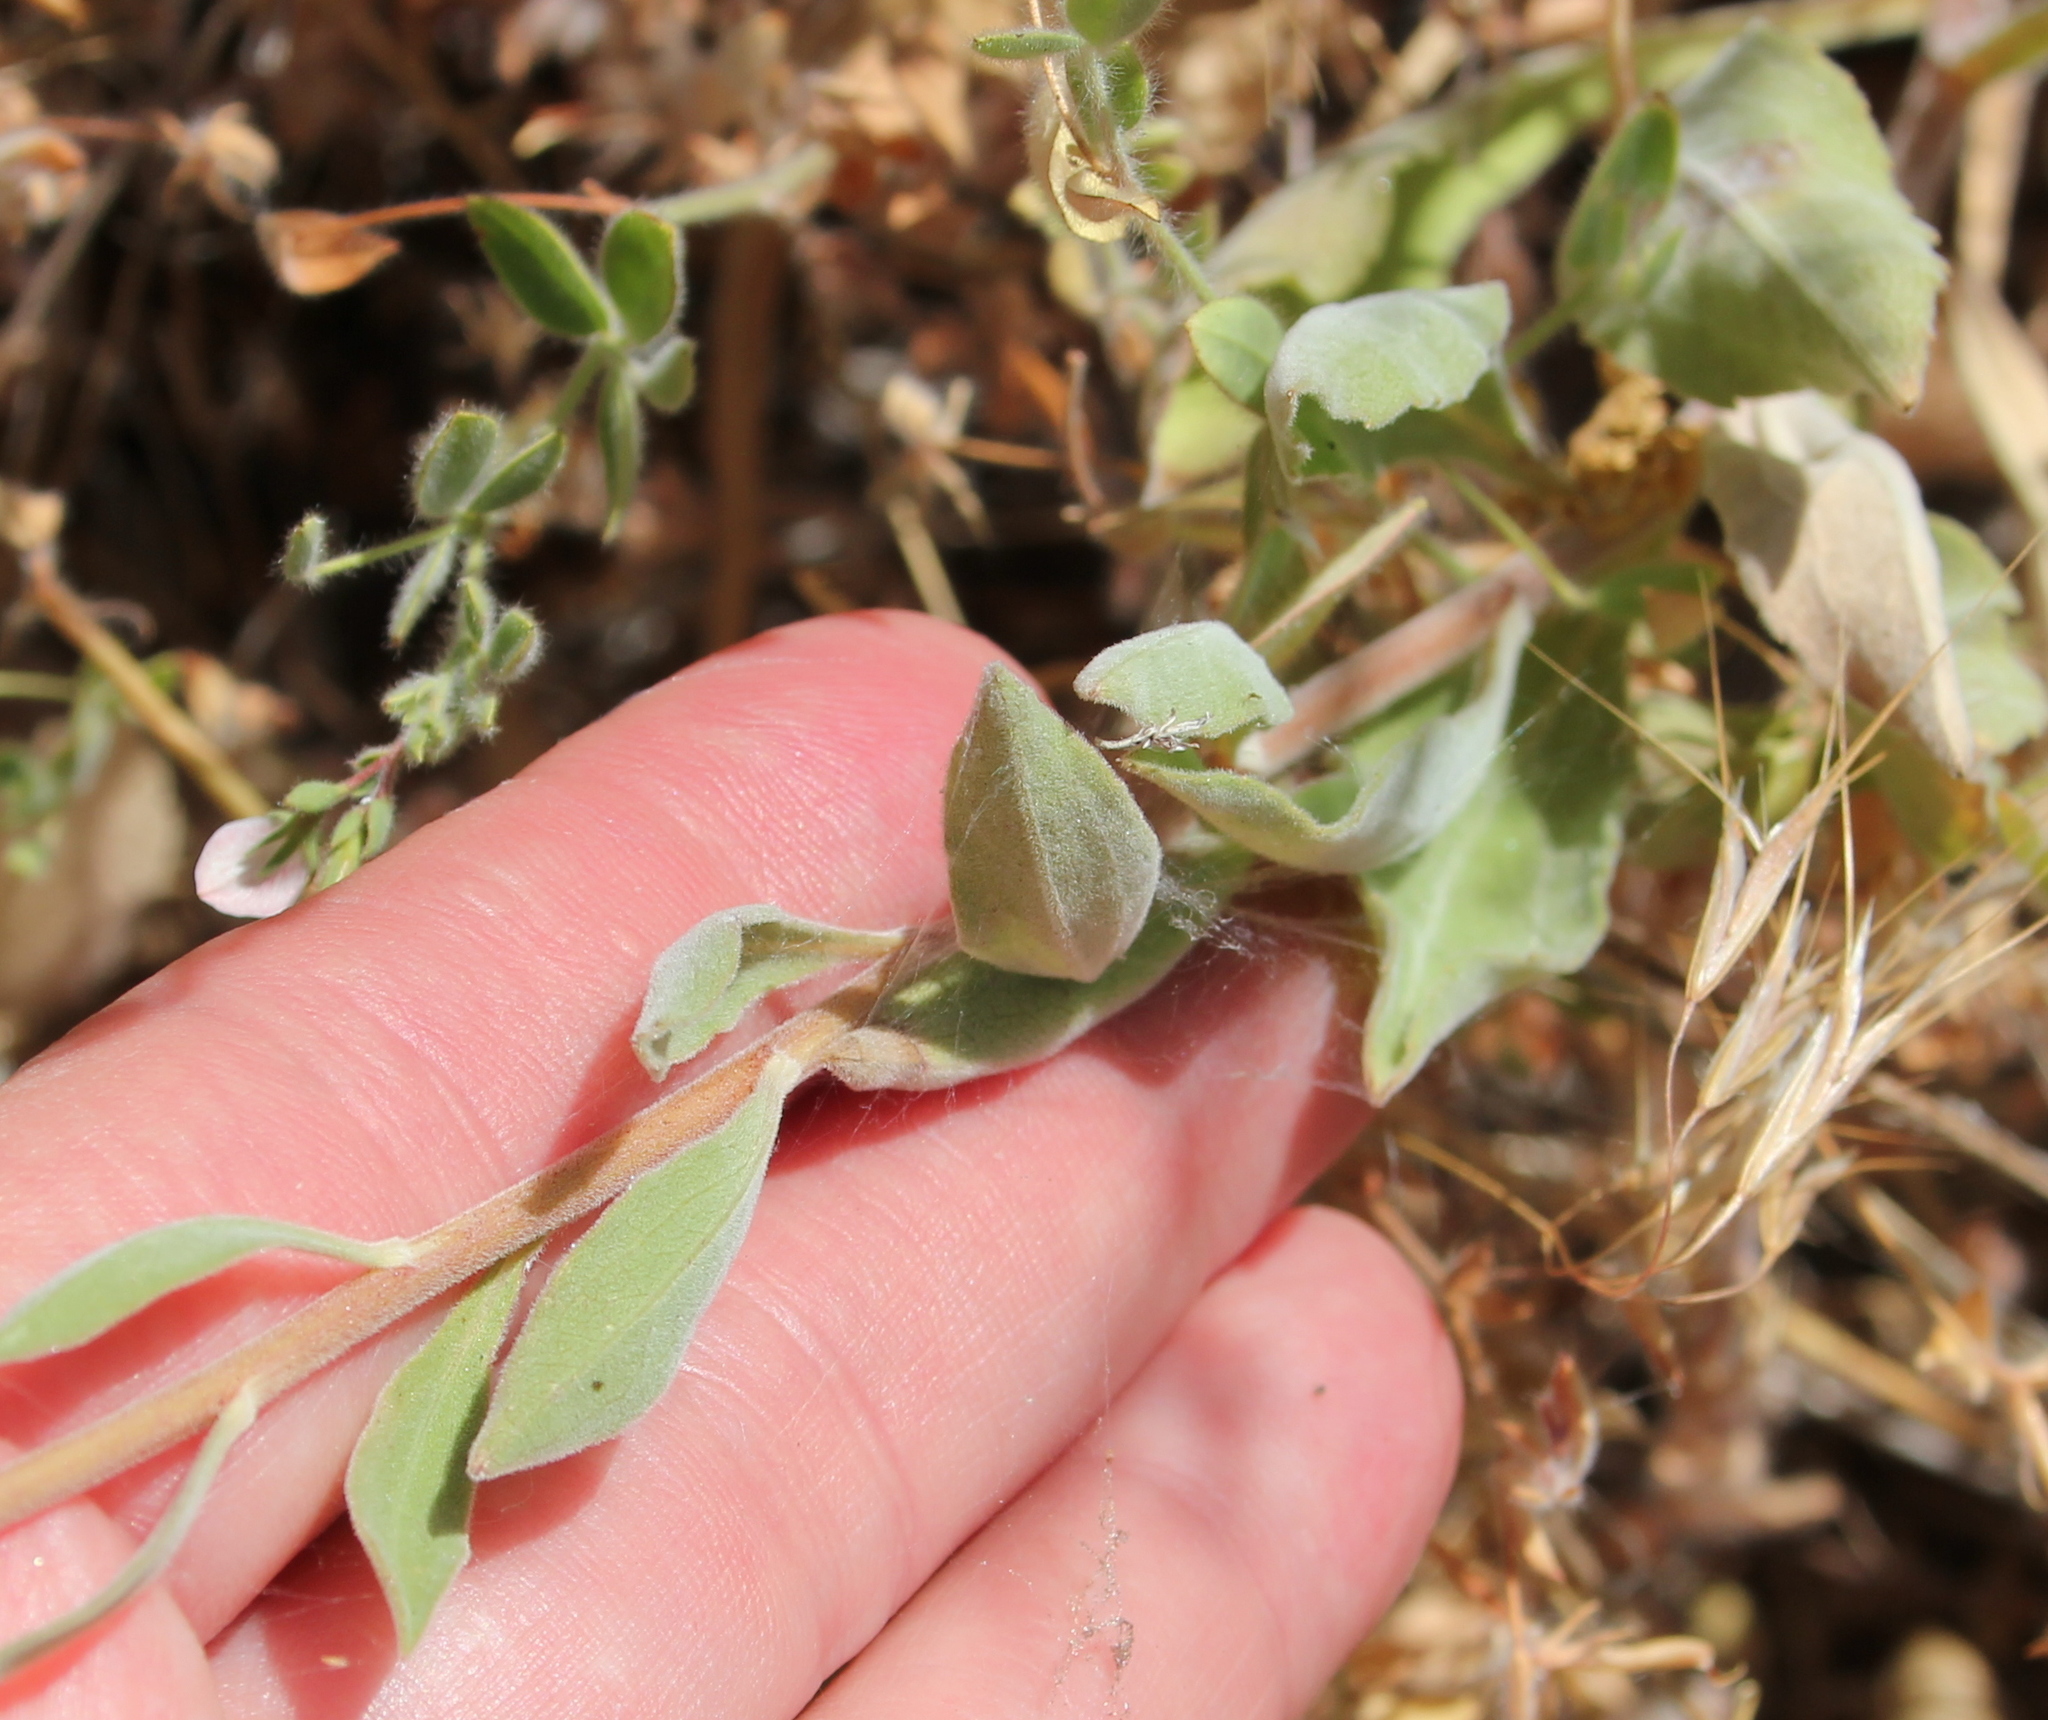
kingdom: Plantae
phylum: Tracheophyta
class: Magnoliopsida
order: Asterales
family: Asteraceae
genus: Solidago
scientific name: Solidago californica
